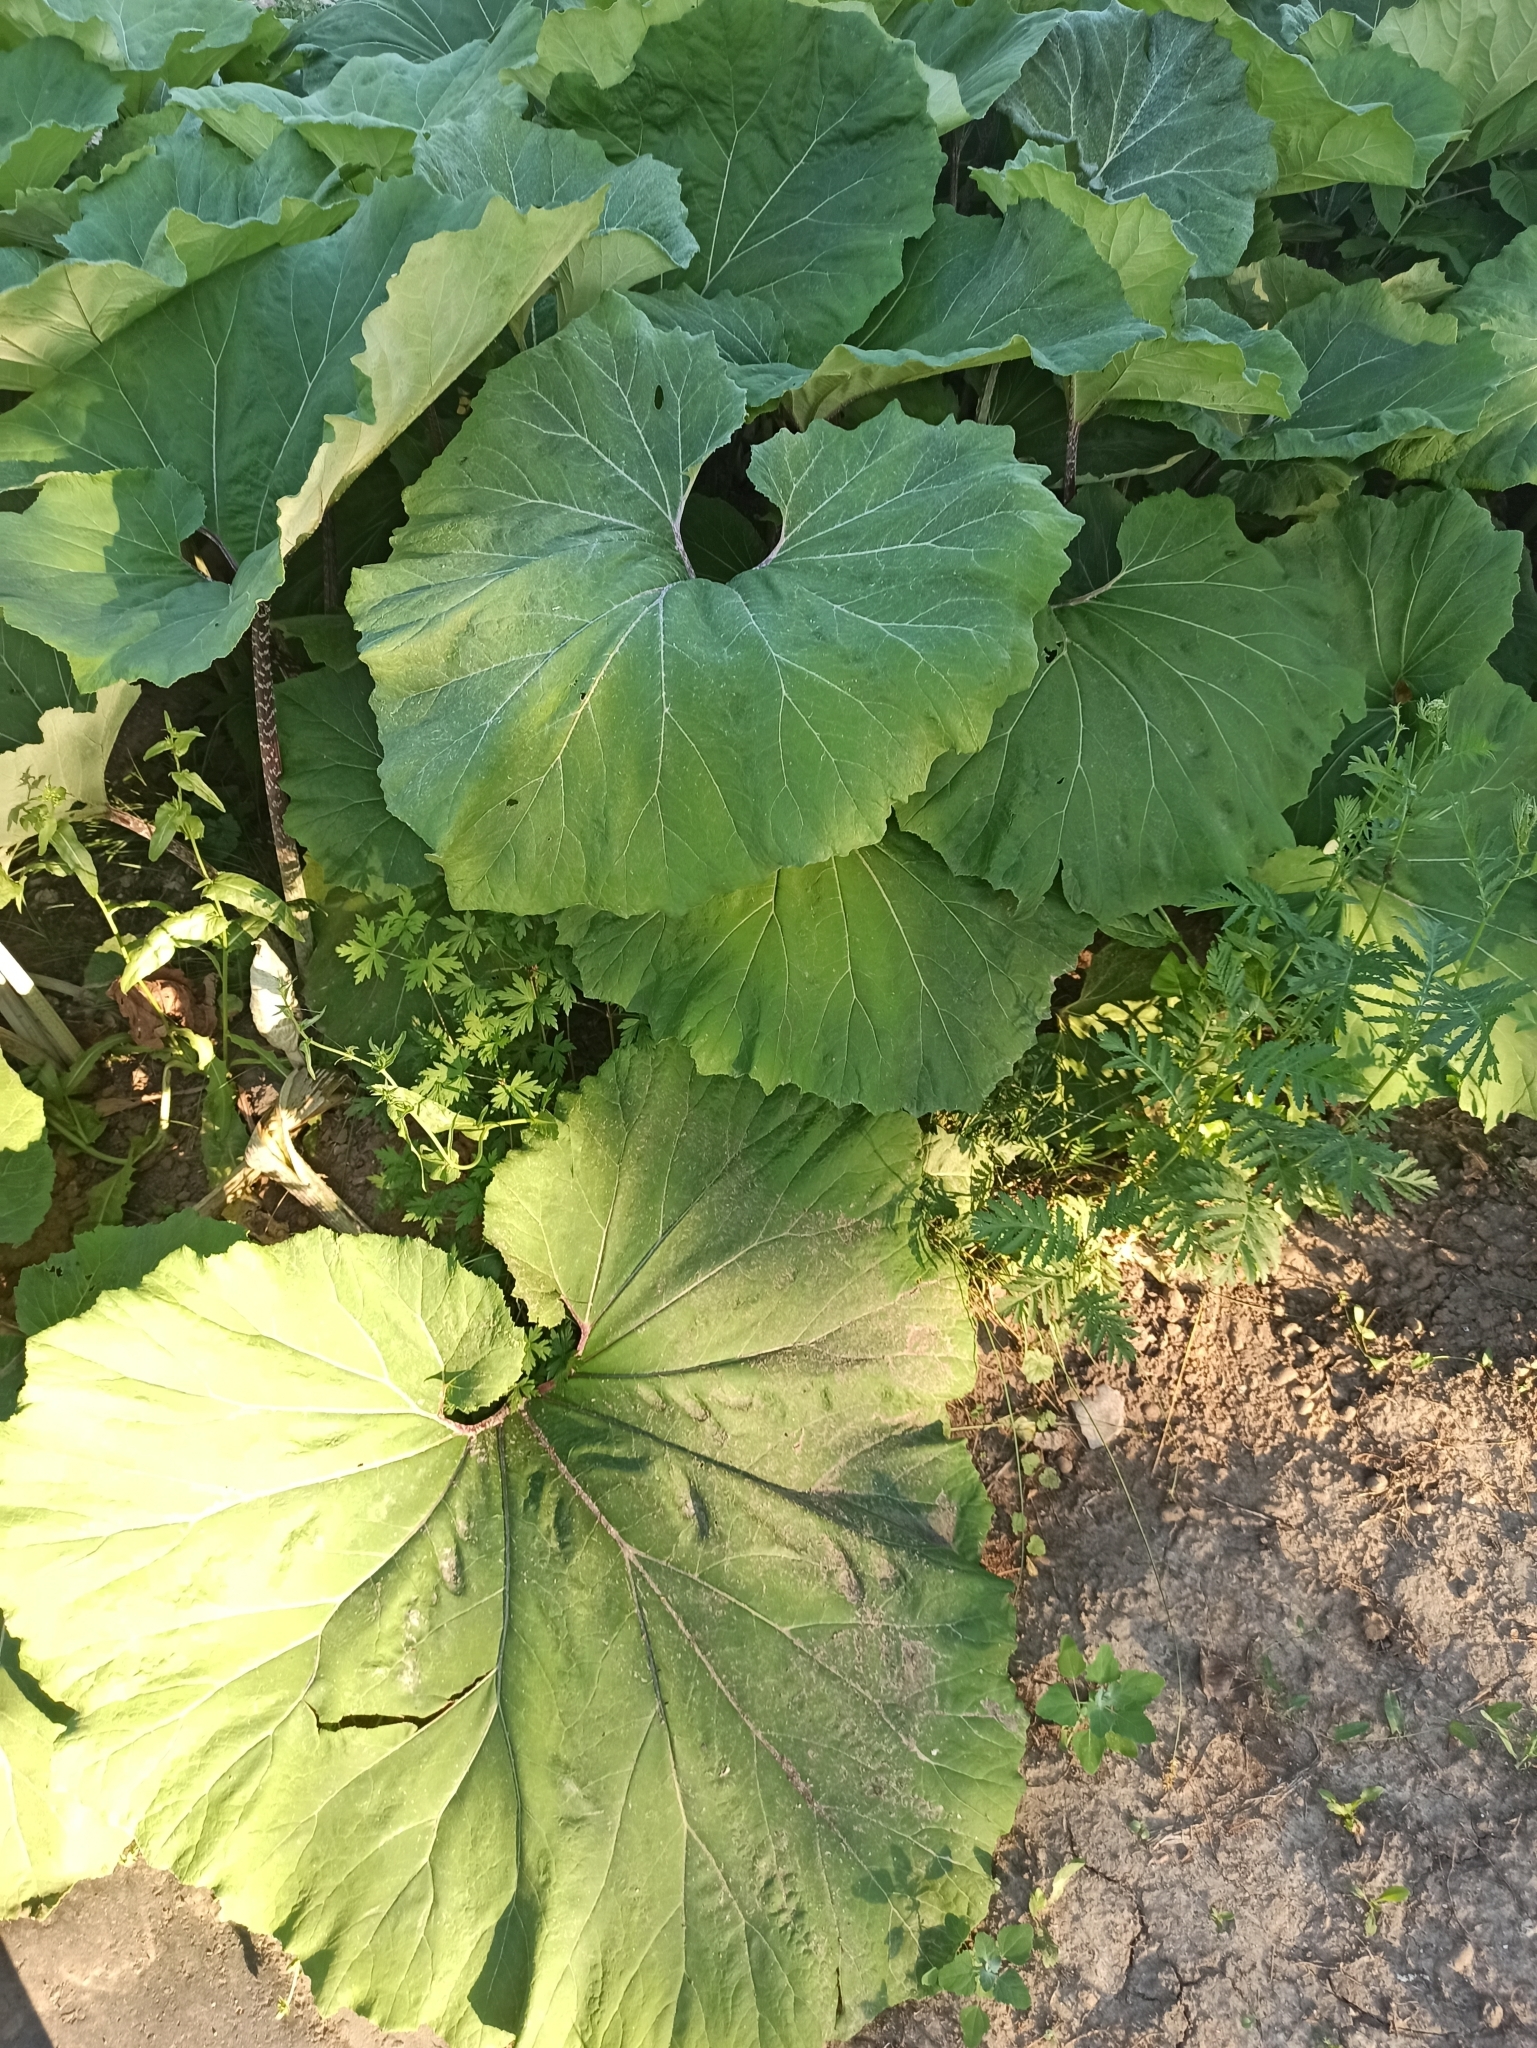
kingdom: Plantae
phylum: Tracheophyta
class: Magnoliopsida
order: Asterales
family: Asteraceae
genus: Petasites
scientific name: Petasites spurius
